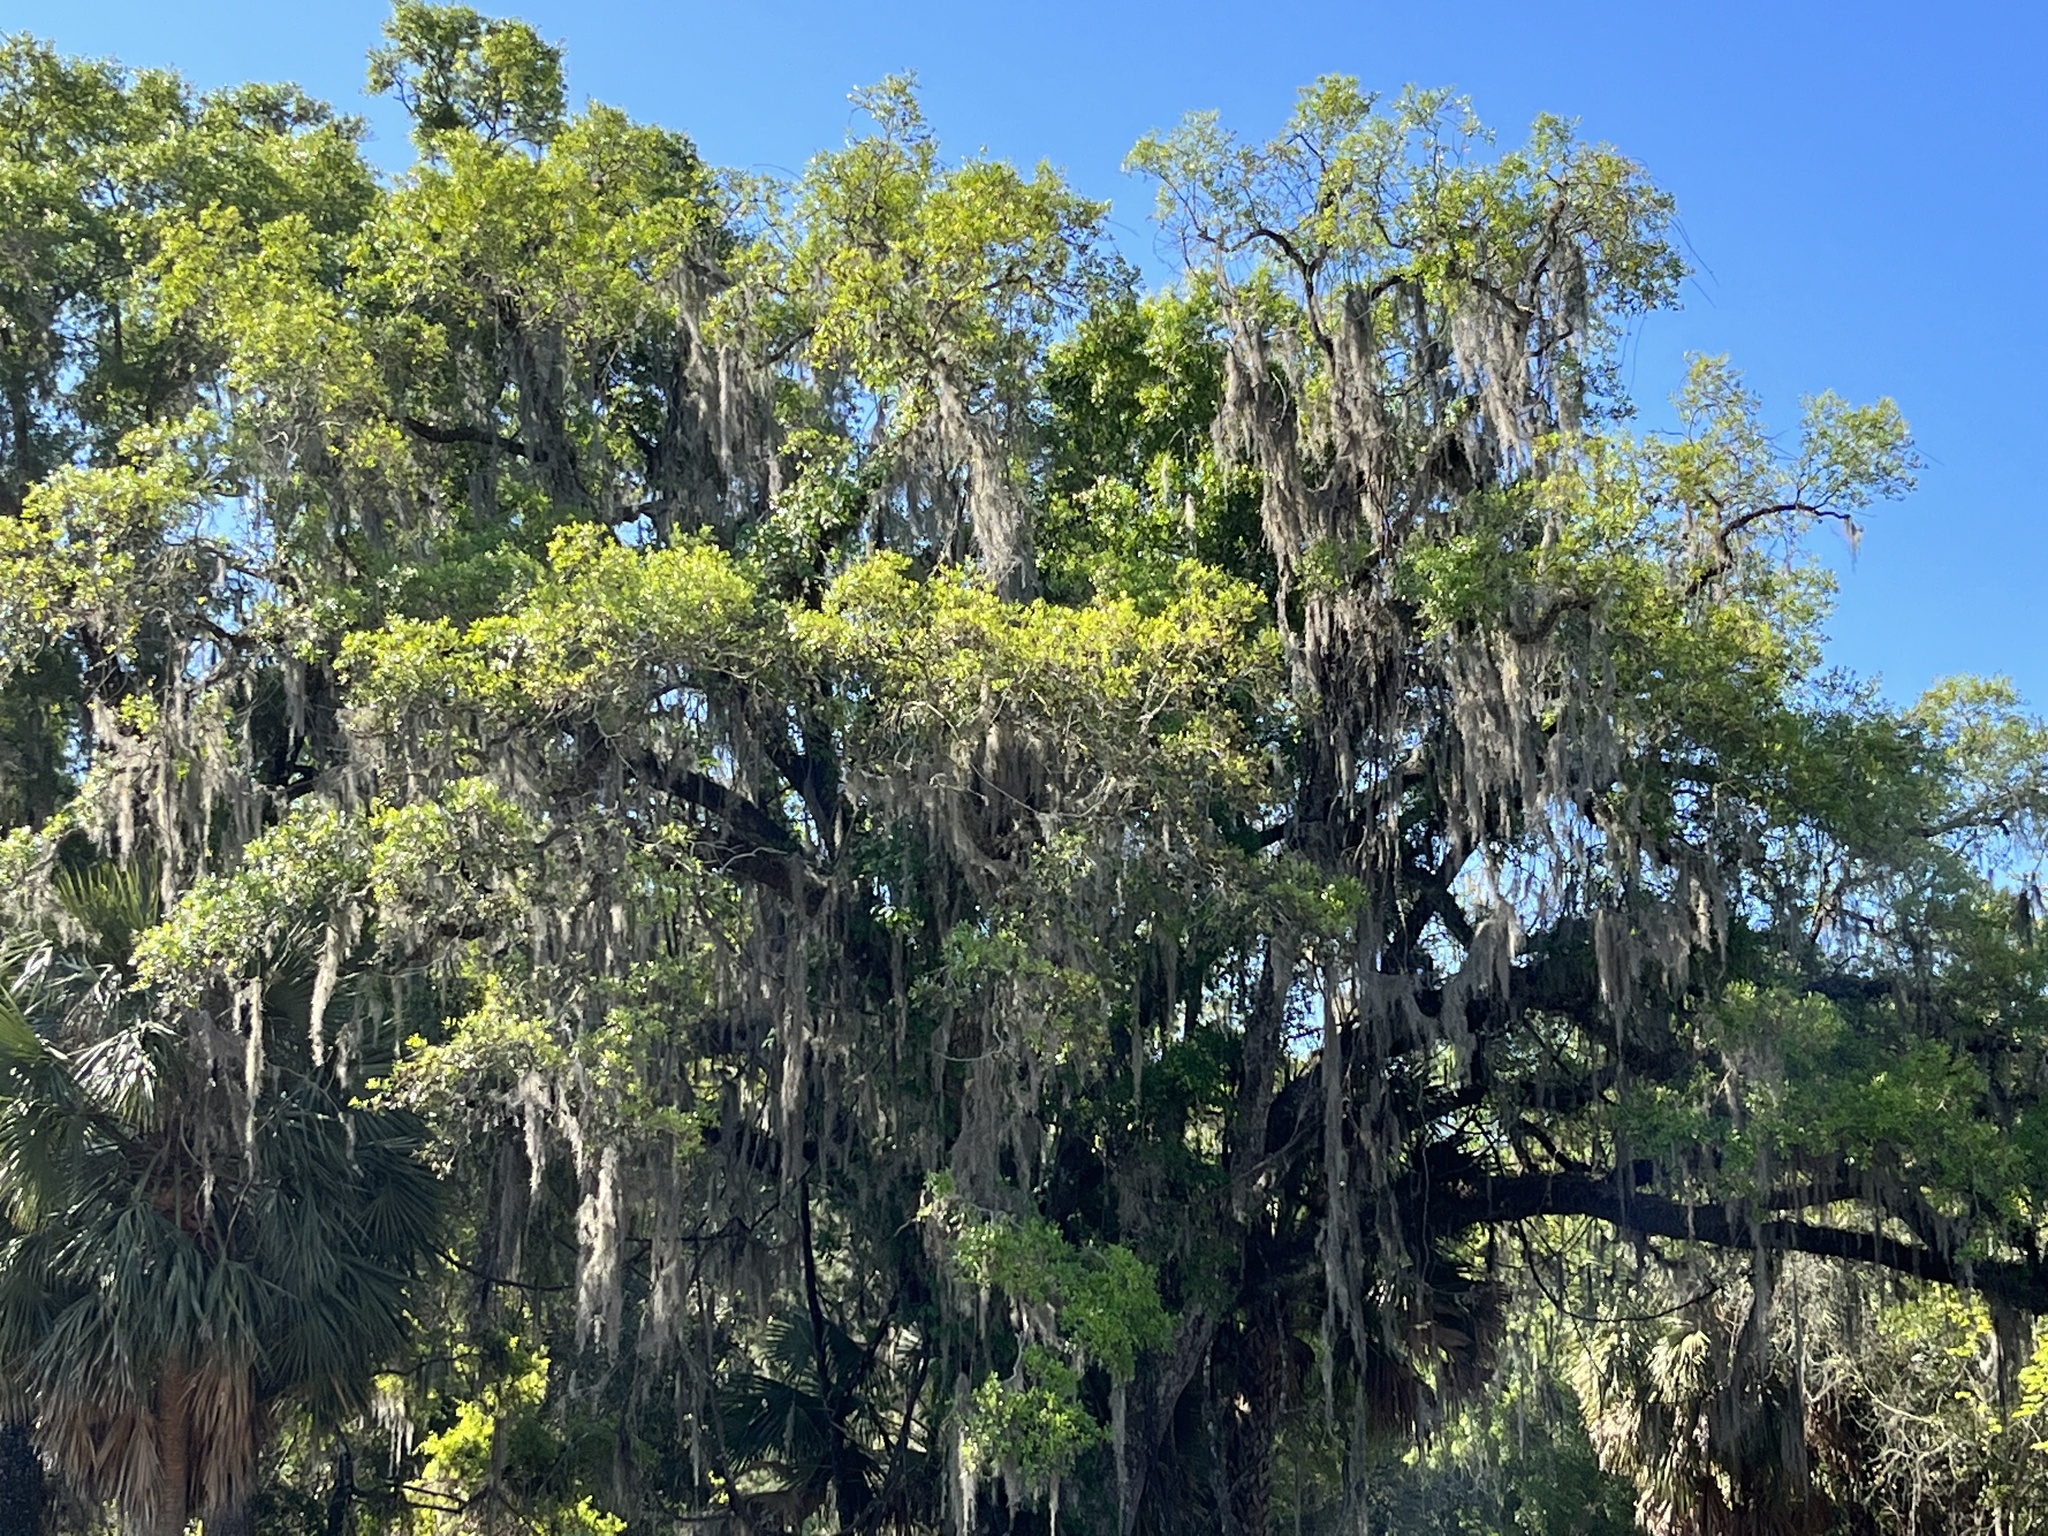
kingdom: Plantae
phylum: Tracheophyta
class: Liliopsida
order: Poales
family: Bromeliaceae
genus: Tillandsia
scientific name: Tillandsia usneoides
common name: Spanish moss
